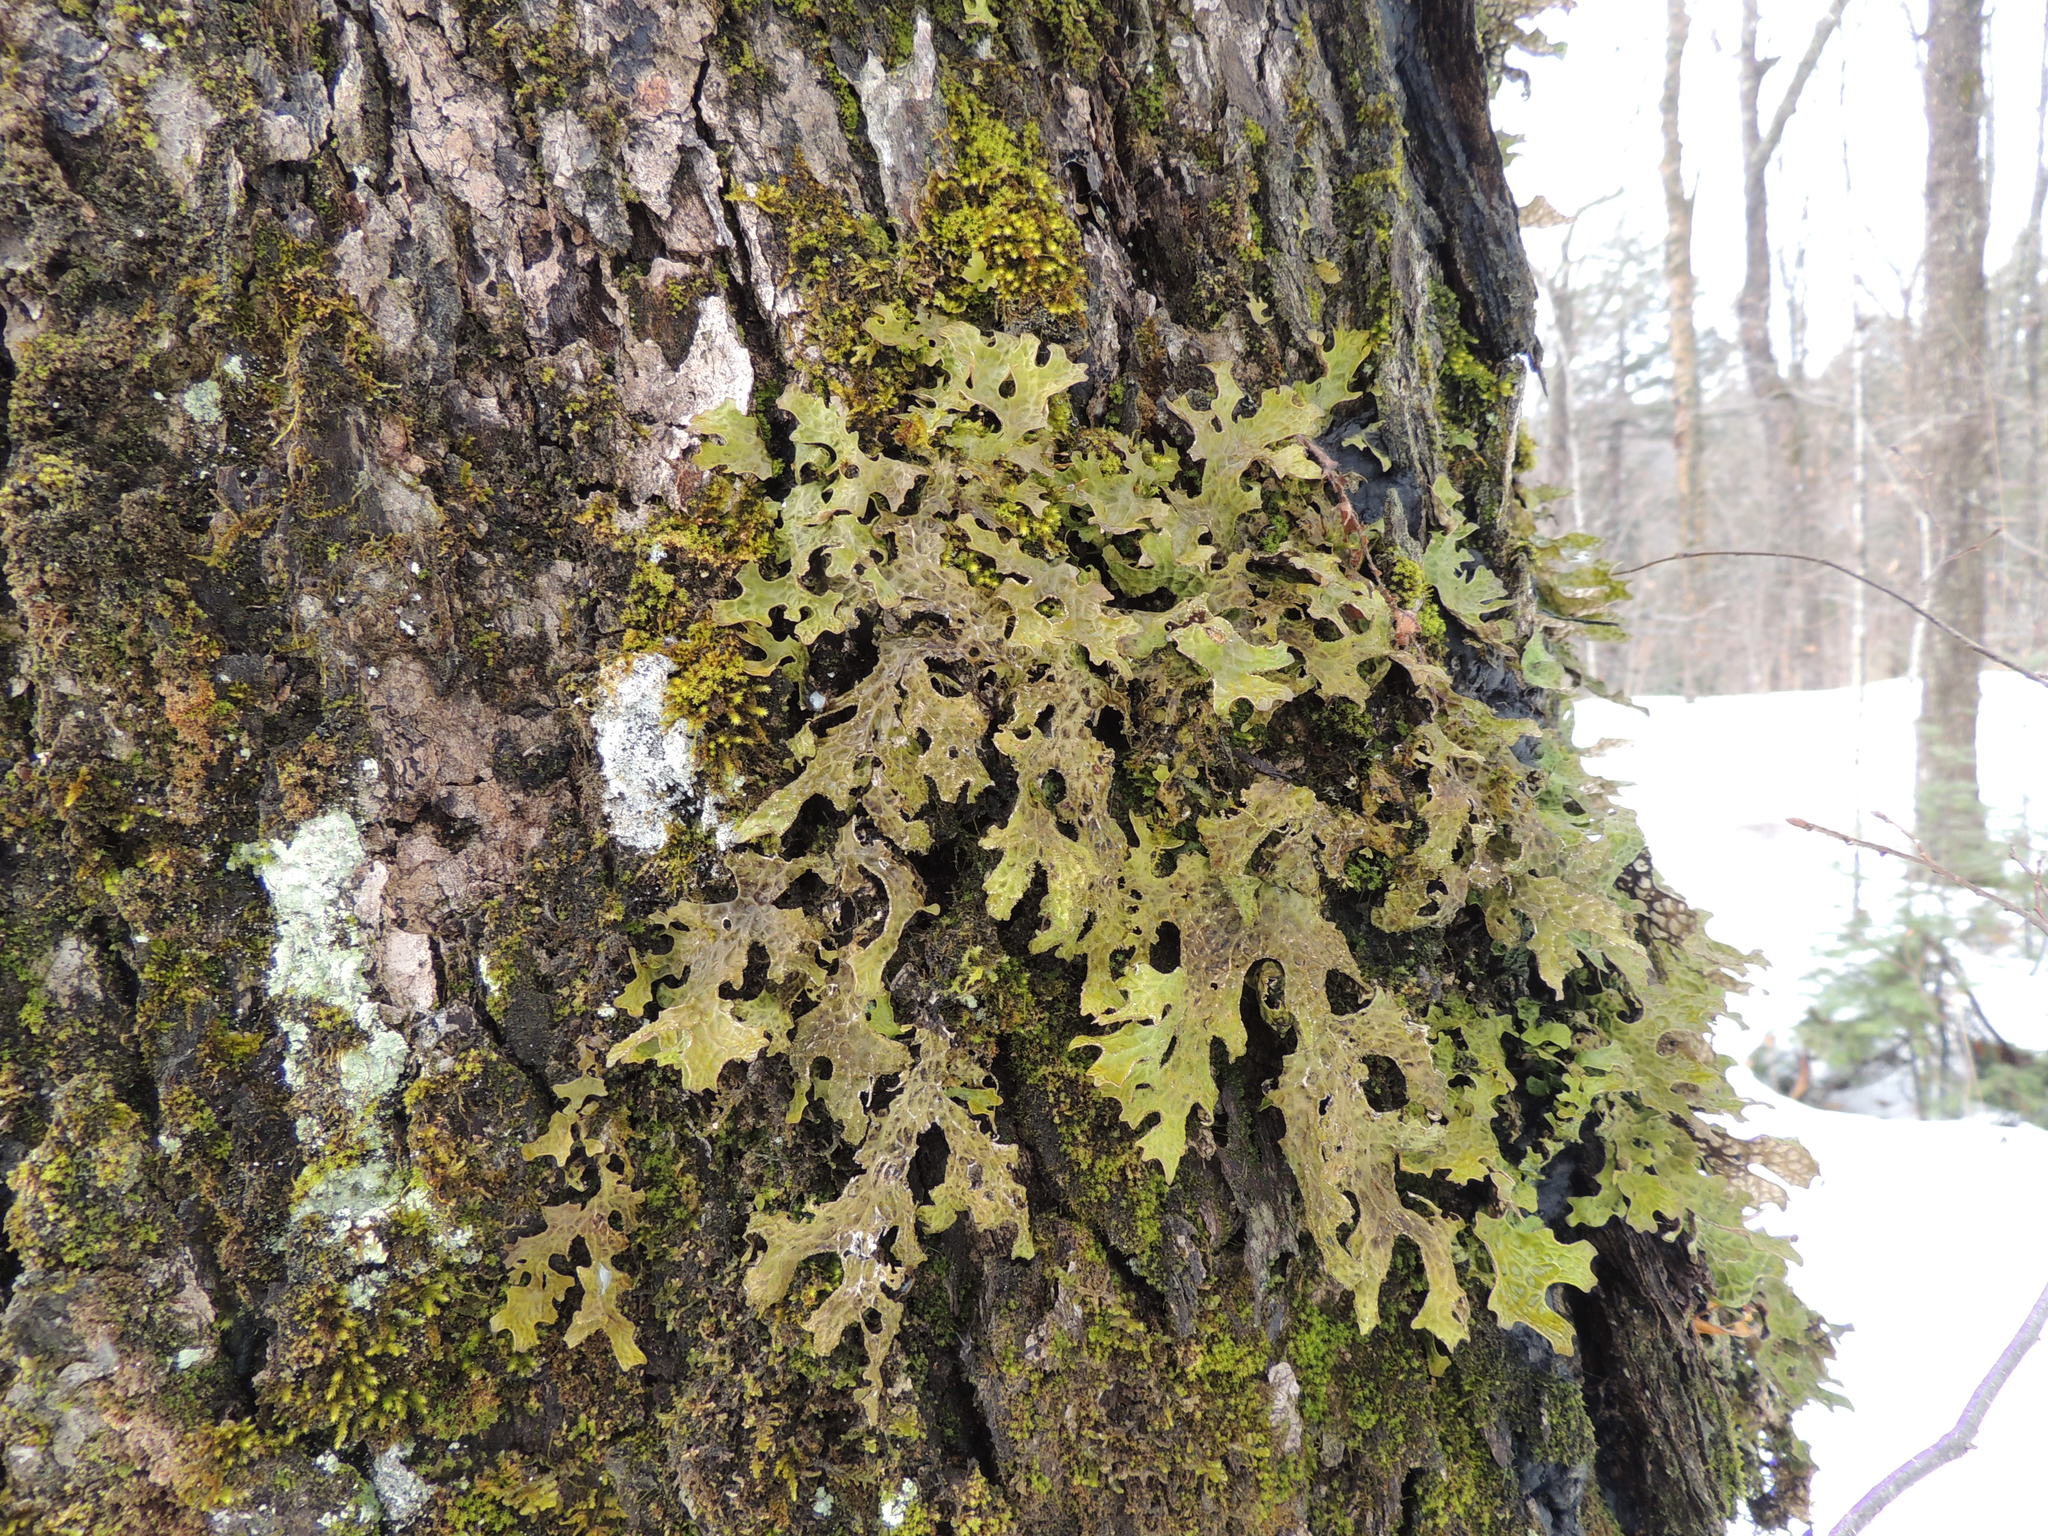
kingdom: Fungi
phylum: Ascomycota
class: Lecanoromycetes
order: Peltigerales
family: Lobariaceae
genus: Lobaria
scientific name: Lobaria pulmonaria
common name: Lungwort
